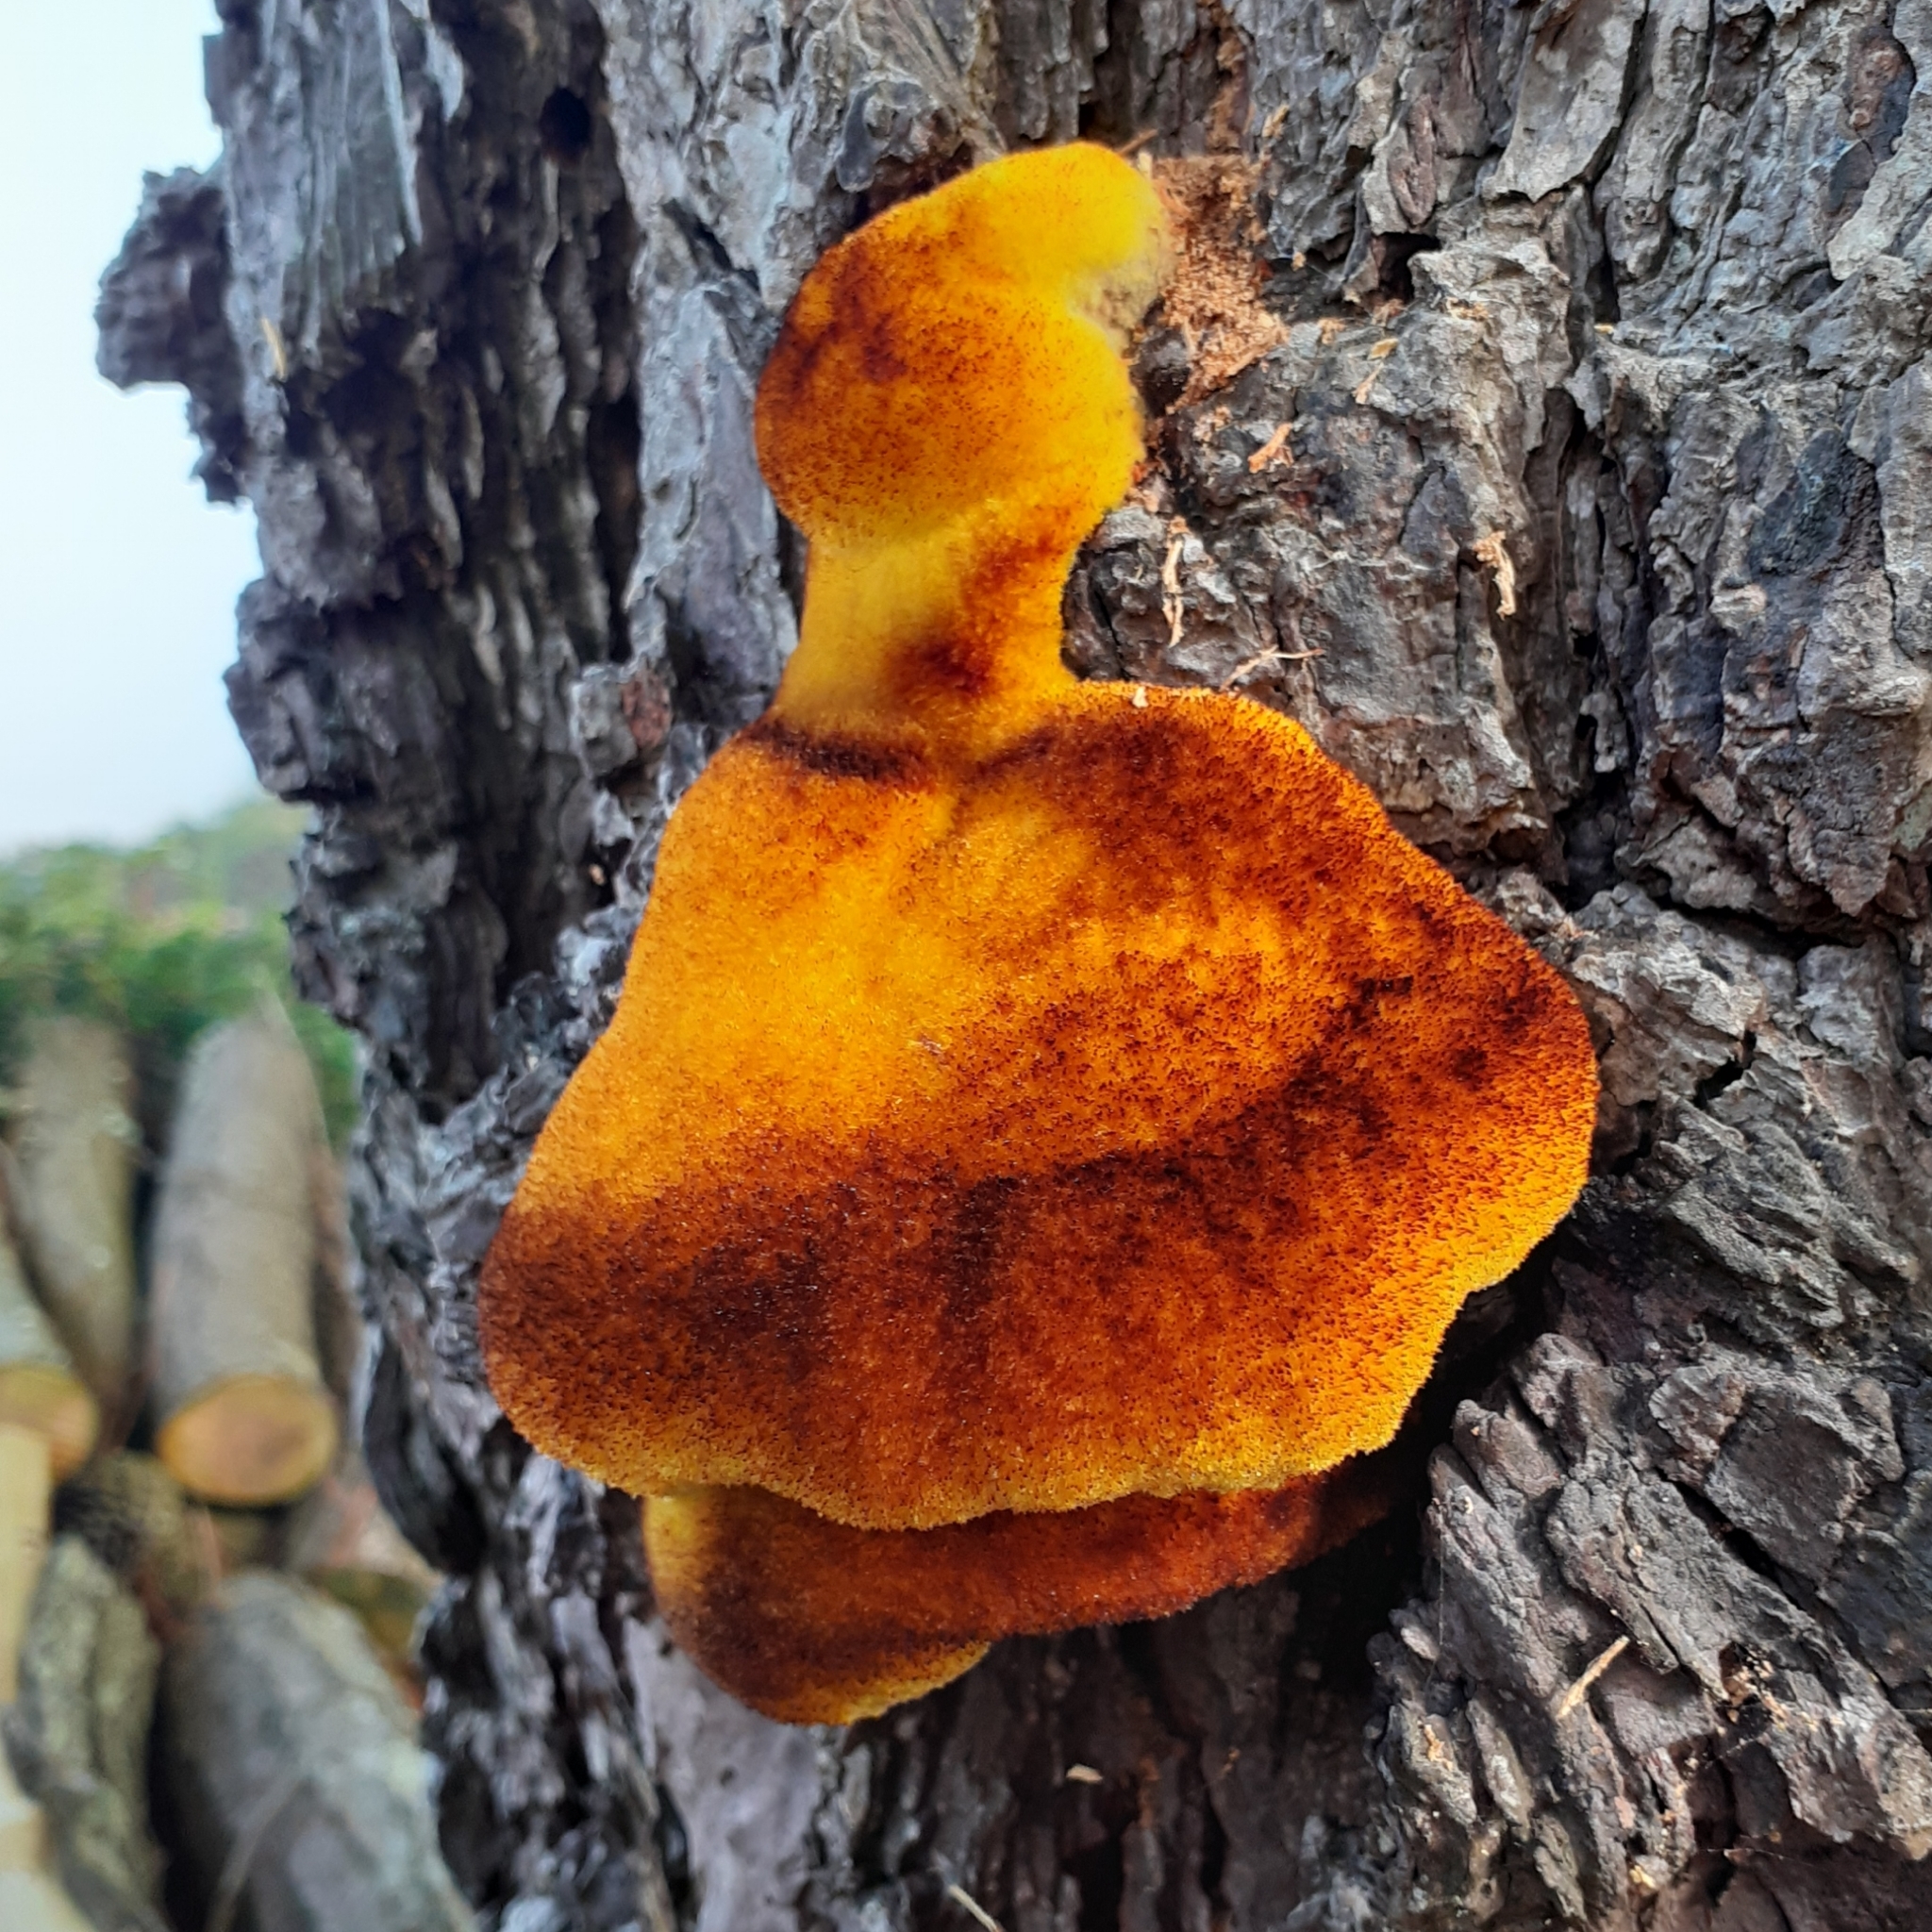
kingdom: Fungi
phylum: Basidiomycota
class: Agaricomycetes
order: Polyporales
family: Laetiporaceae
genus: Phaeolus
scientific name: Phaeolus schweinitzii
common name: Dyer's mazegill
